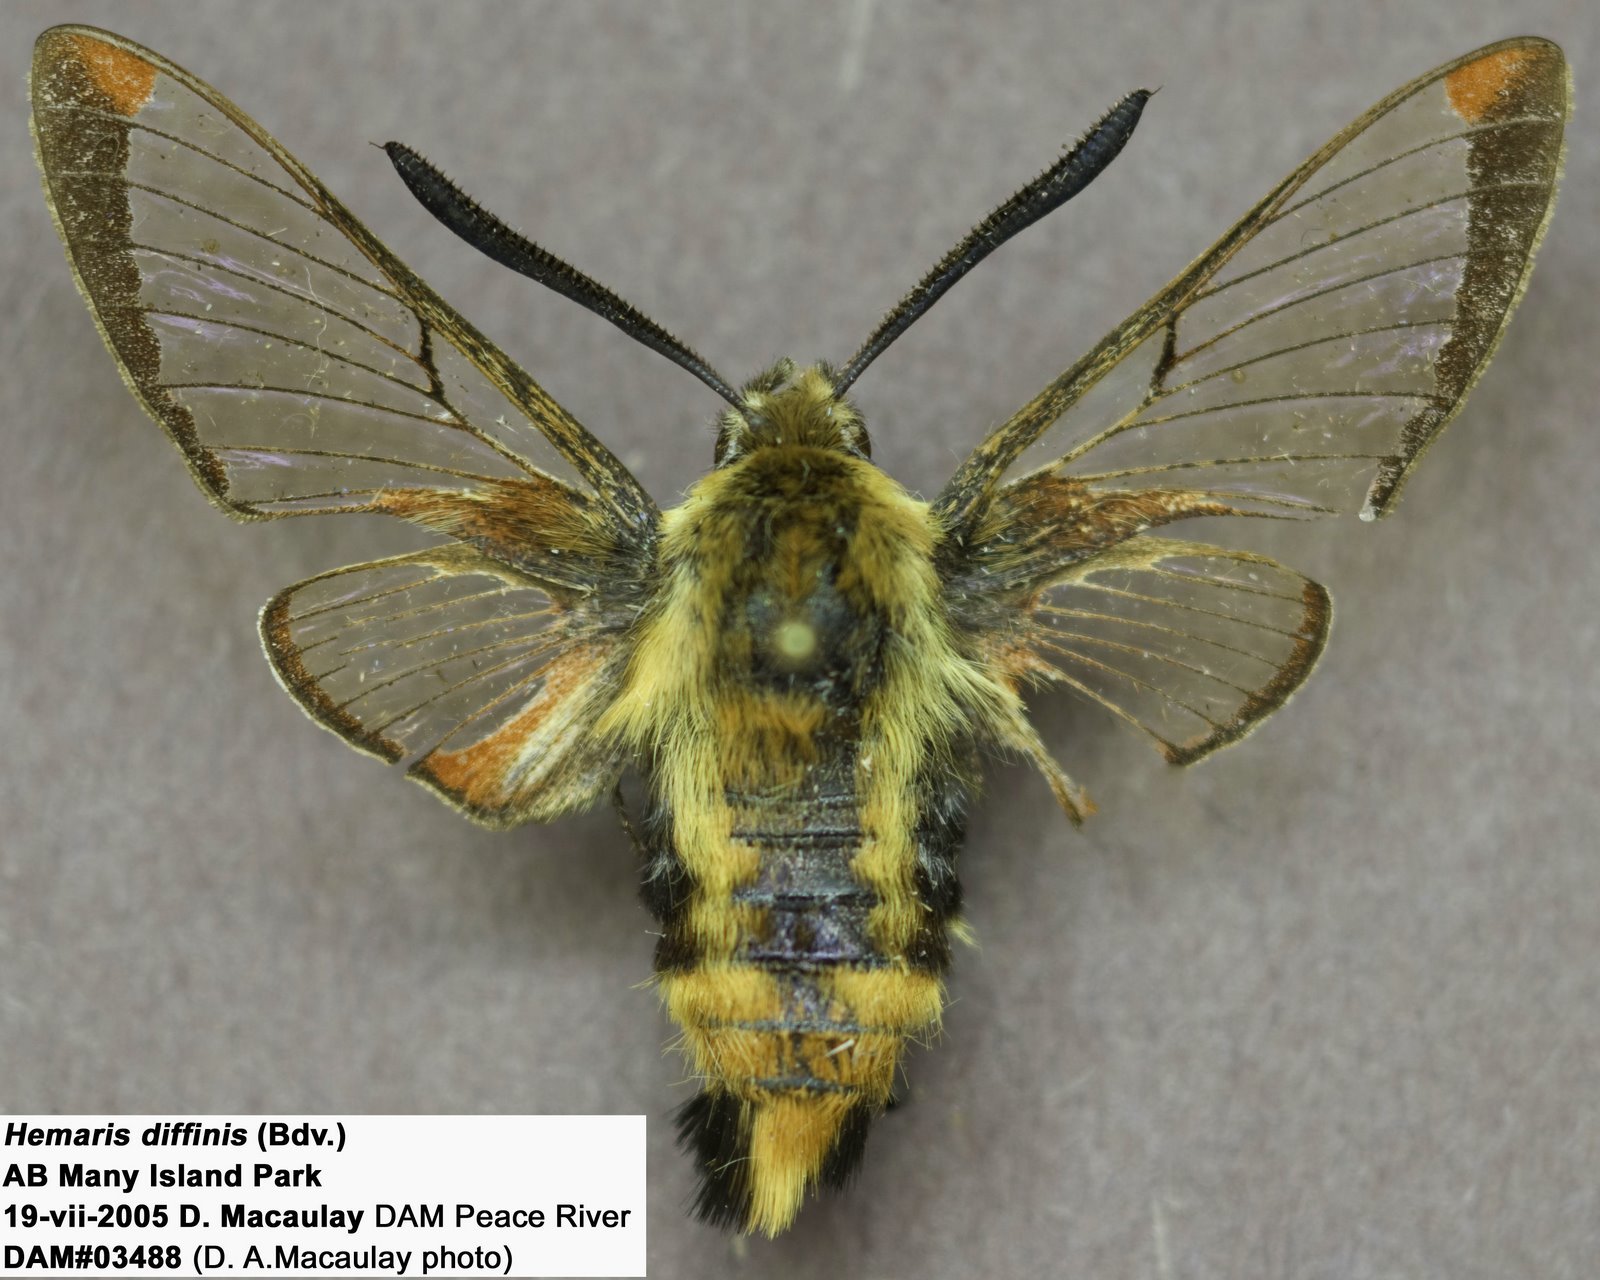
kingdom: Animalia
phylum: Arthropoda
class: Insecta
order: Lepidoptera
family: Sphingidae
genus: Hemaris
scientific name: Hemaris diffinis
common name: Bumblebee moth
